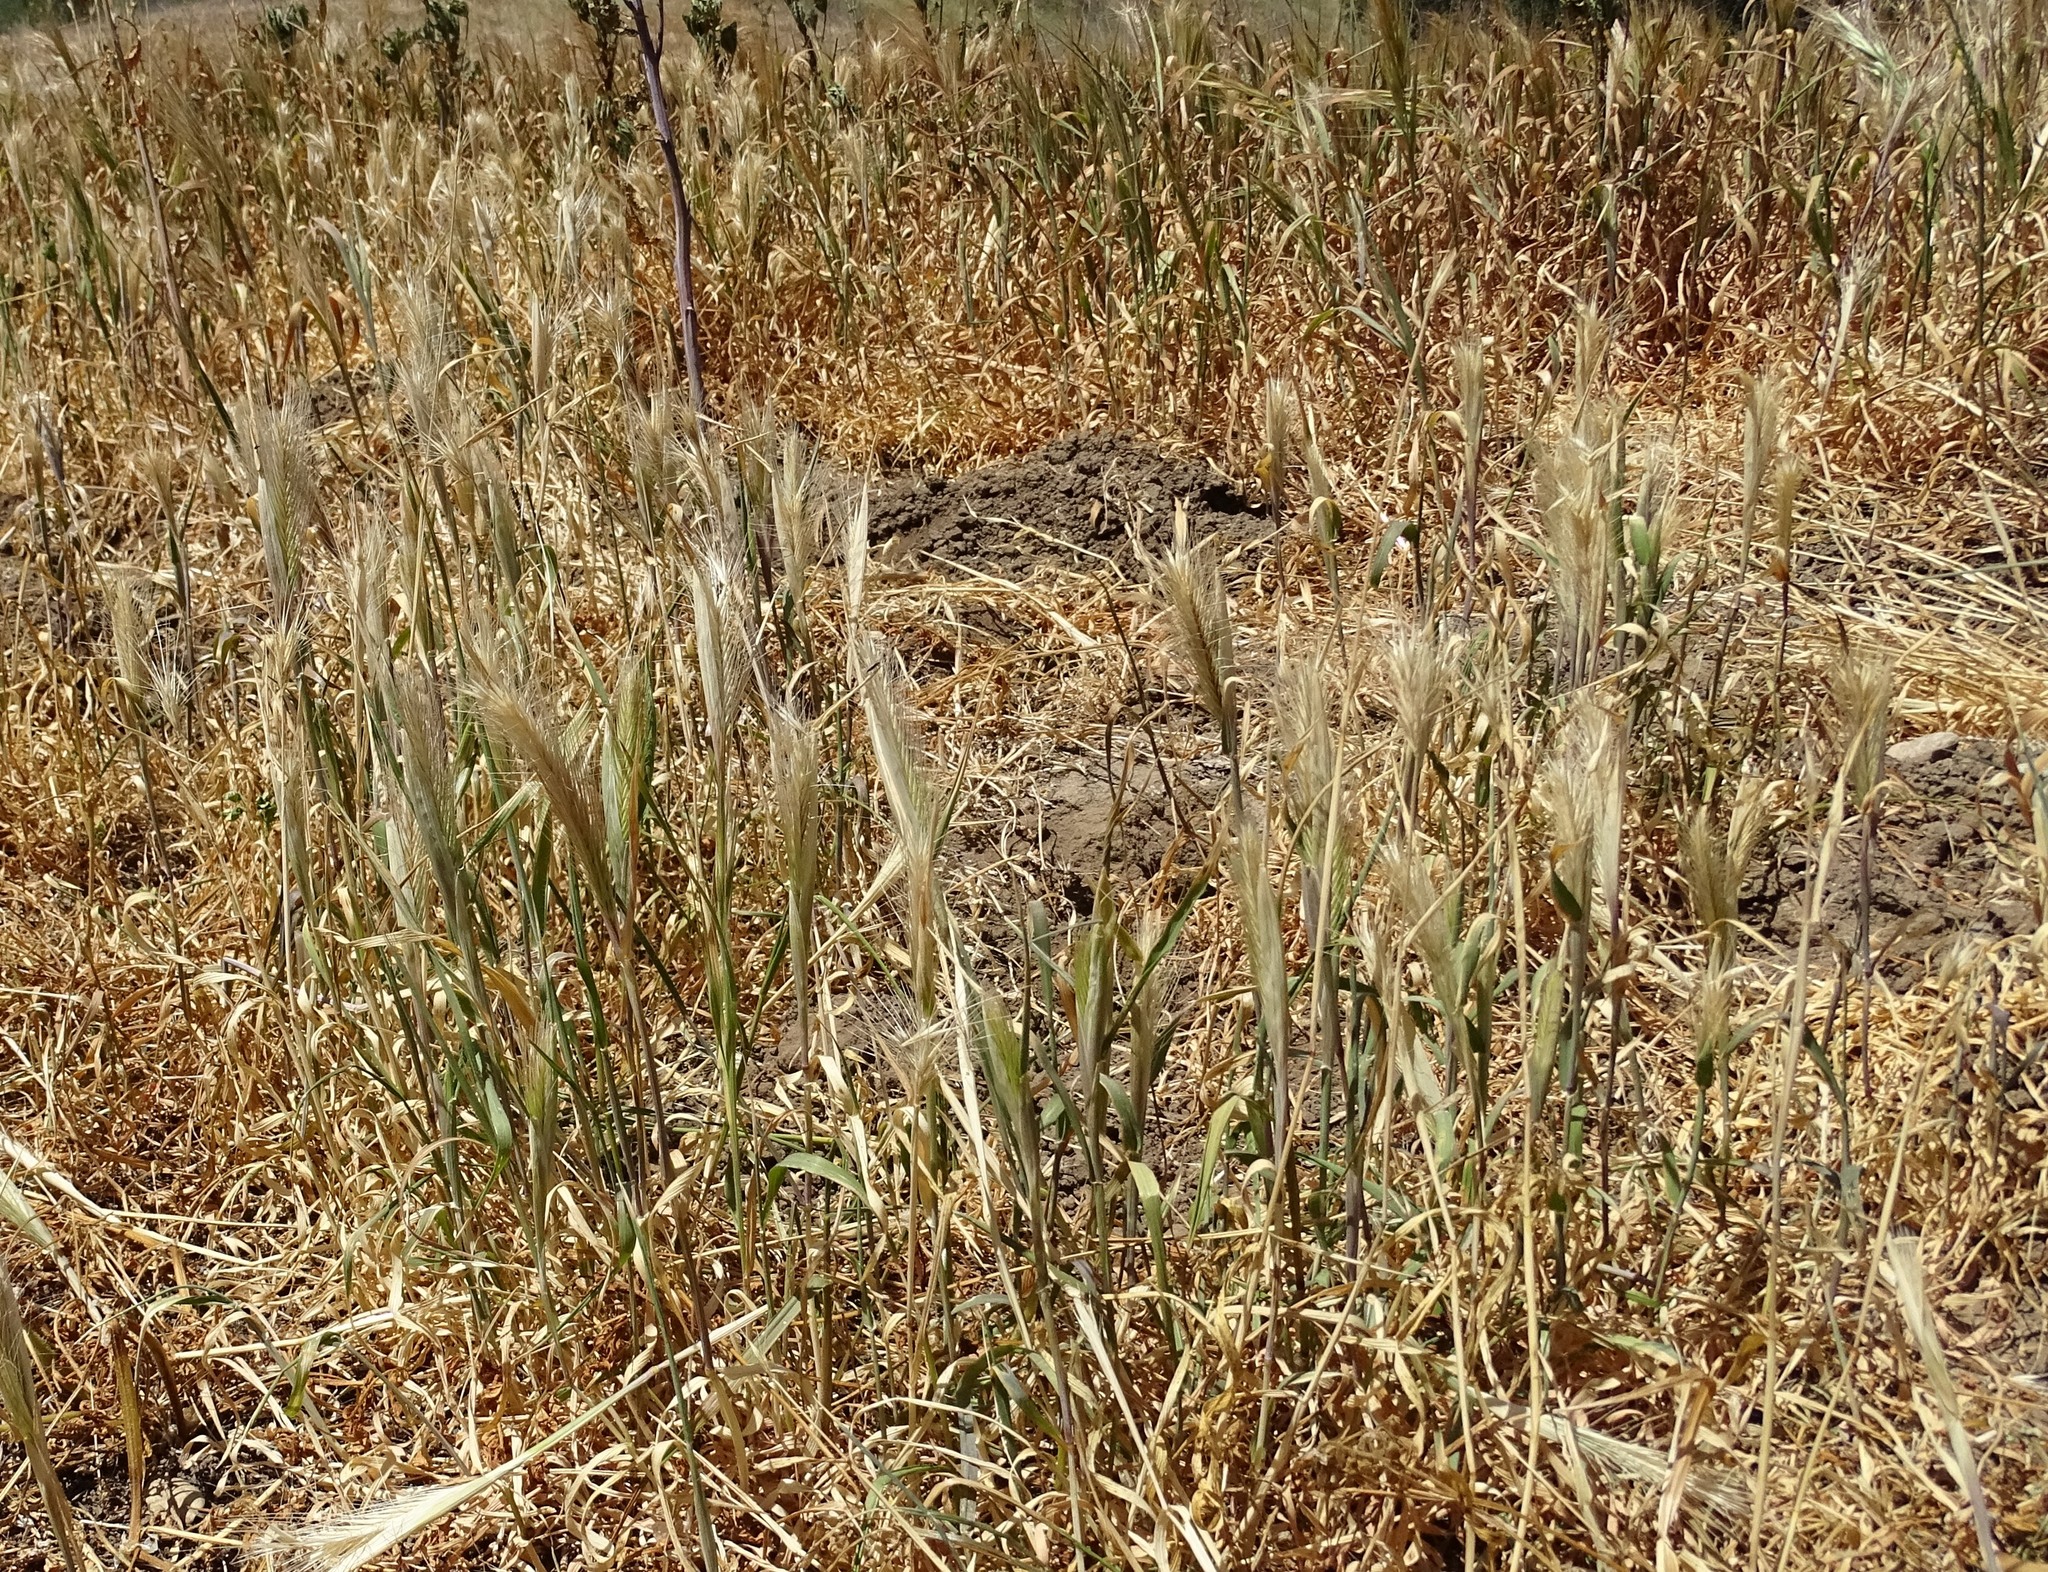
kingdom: Plantae
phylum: Tracheophyta
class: Liliopsida
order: Poales
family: Poaceae
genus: Hordeum
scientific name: Hordeum murinum
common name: Wall barley
